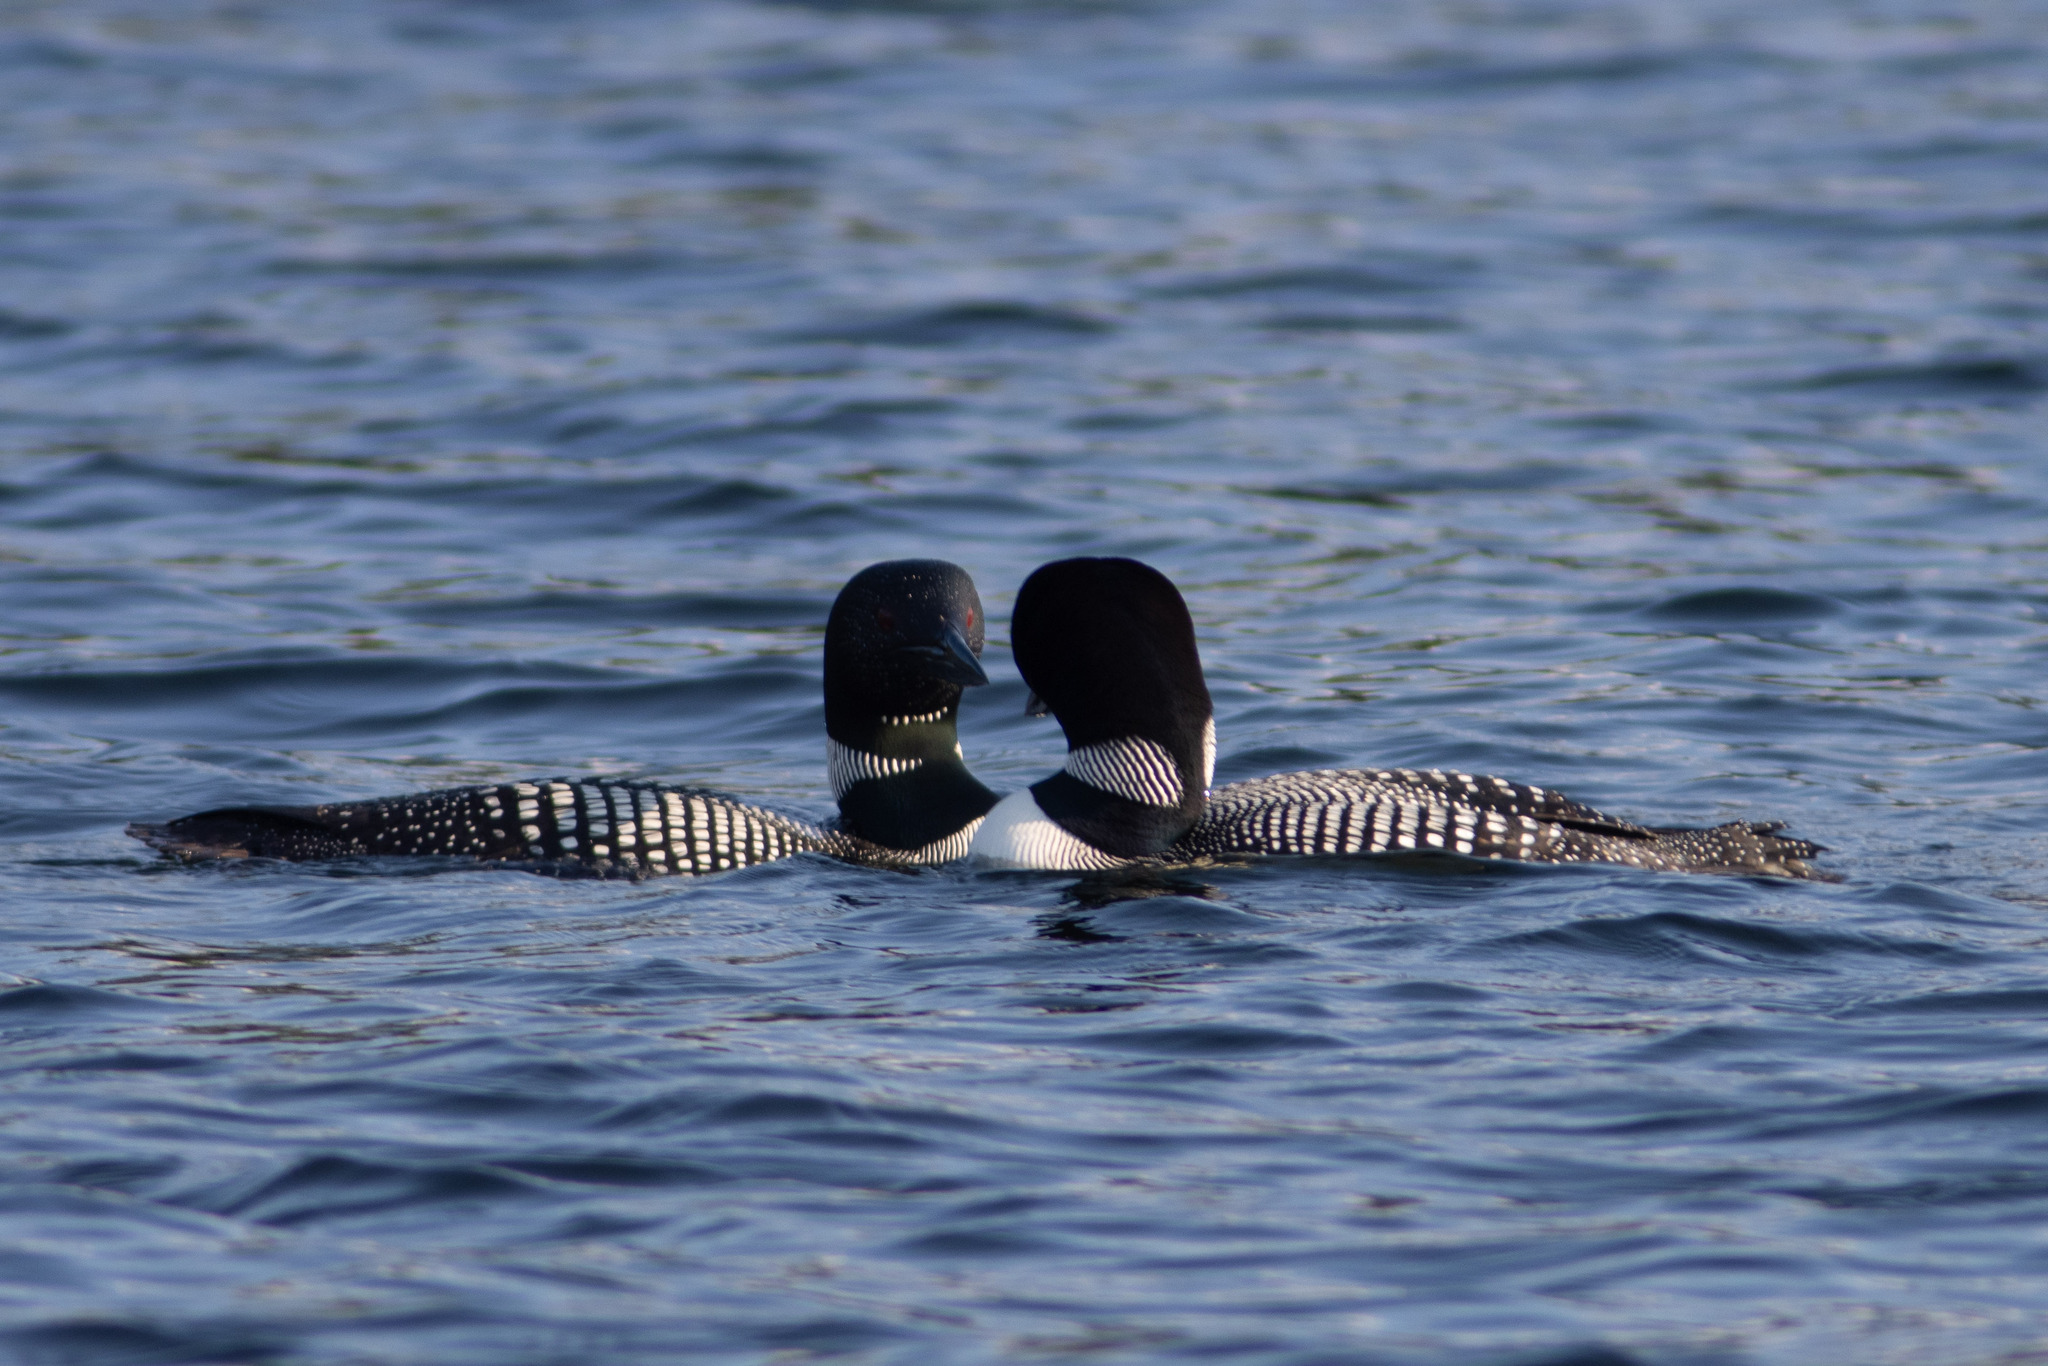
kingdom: Animalia
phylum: Chordata
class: Aves
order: Gaviiformes
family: Gaviidae
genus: Gavia
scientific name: Gavia immer
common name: Common loon
